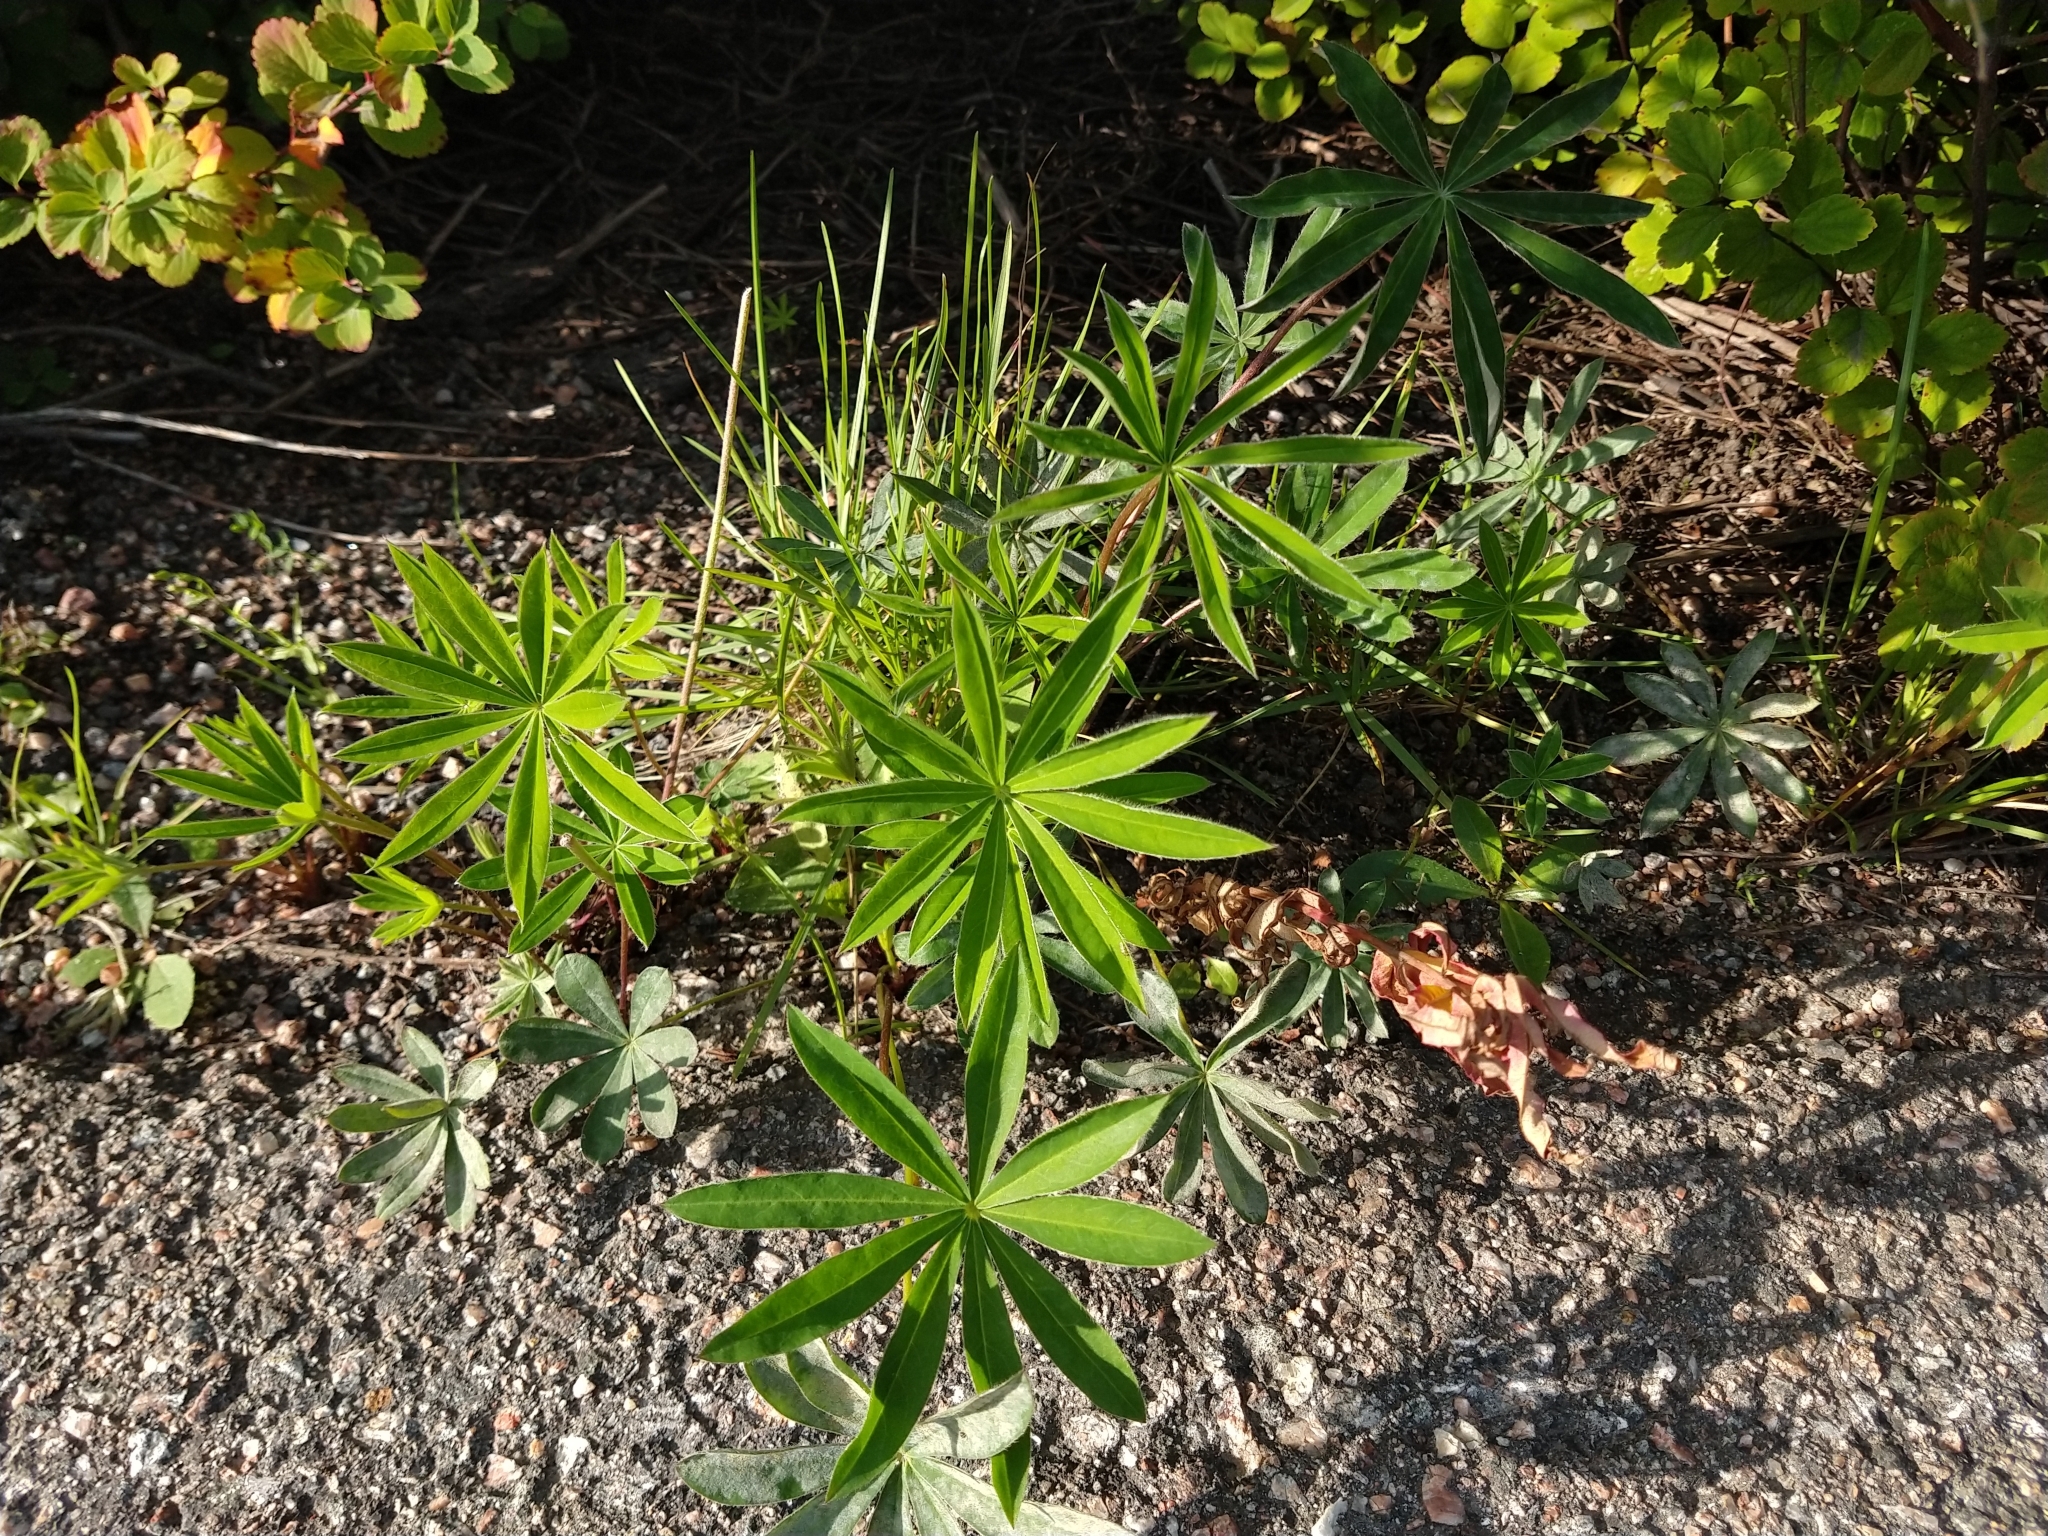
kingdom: Plantae
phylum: Tracheophyta
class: Magnoliopsida
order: Fabales
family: Fabaceae
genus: Lupinus
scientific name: Lupinus polyphyllus
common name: Garden lupin
